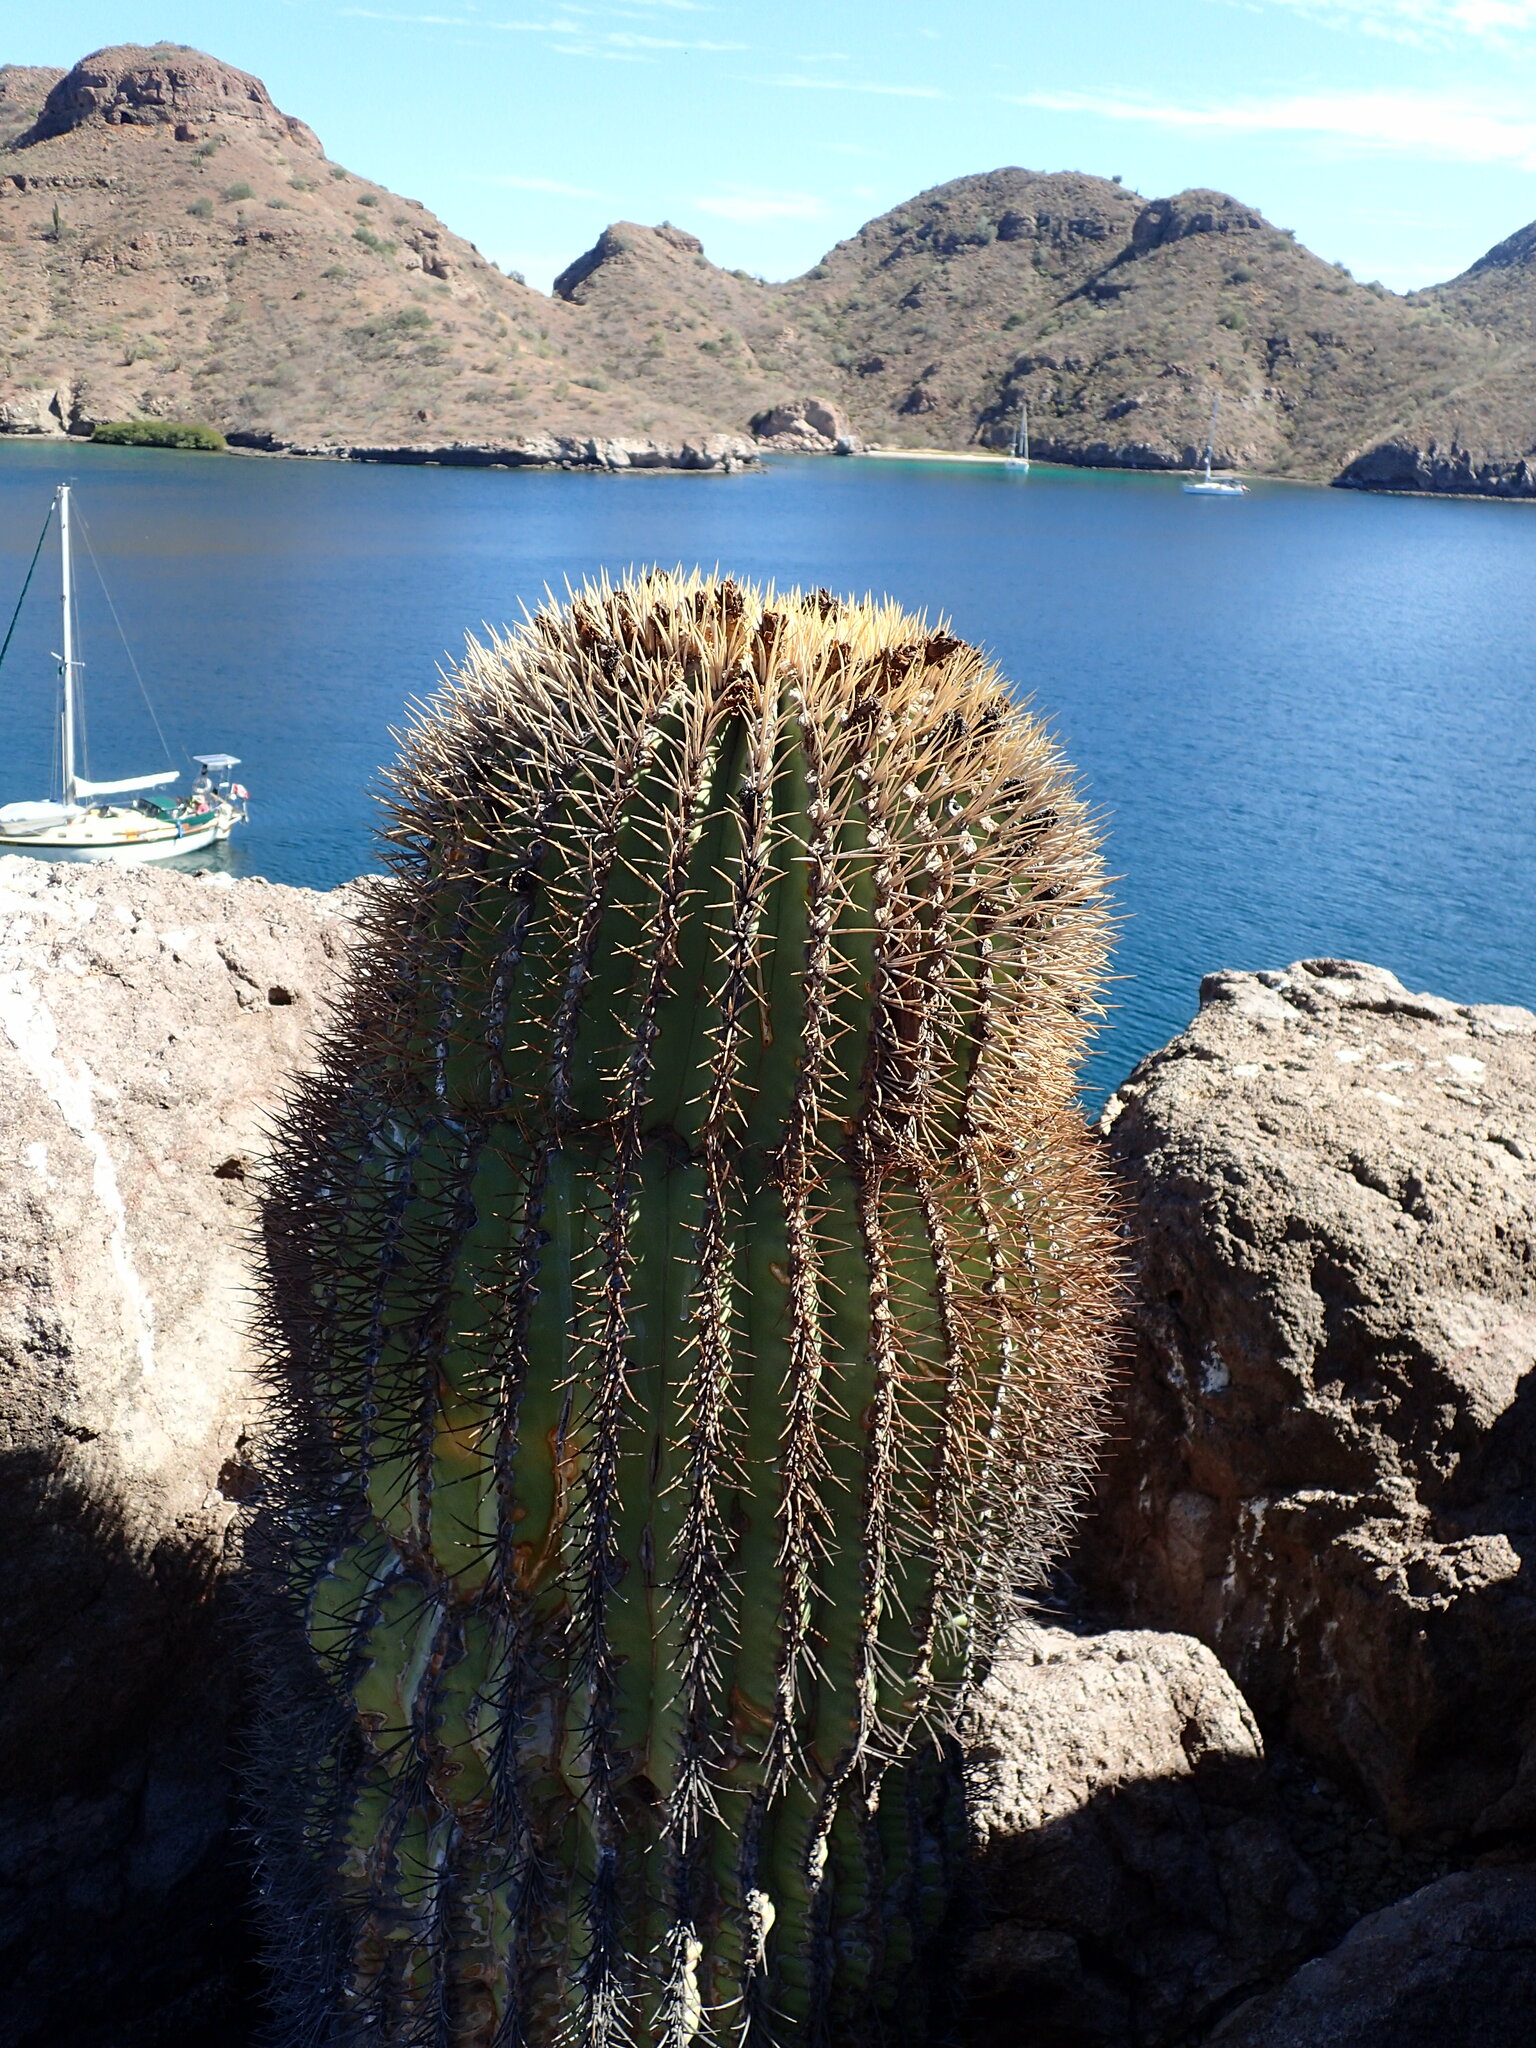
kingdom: Plantae
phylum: Tracheophyta
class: Magnoliopsida
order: Caryophyllales
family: Cactaceae
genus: Ferocactus
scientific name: Ferocactus diguetii
